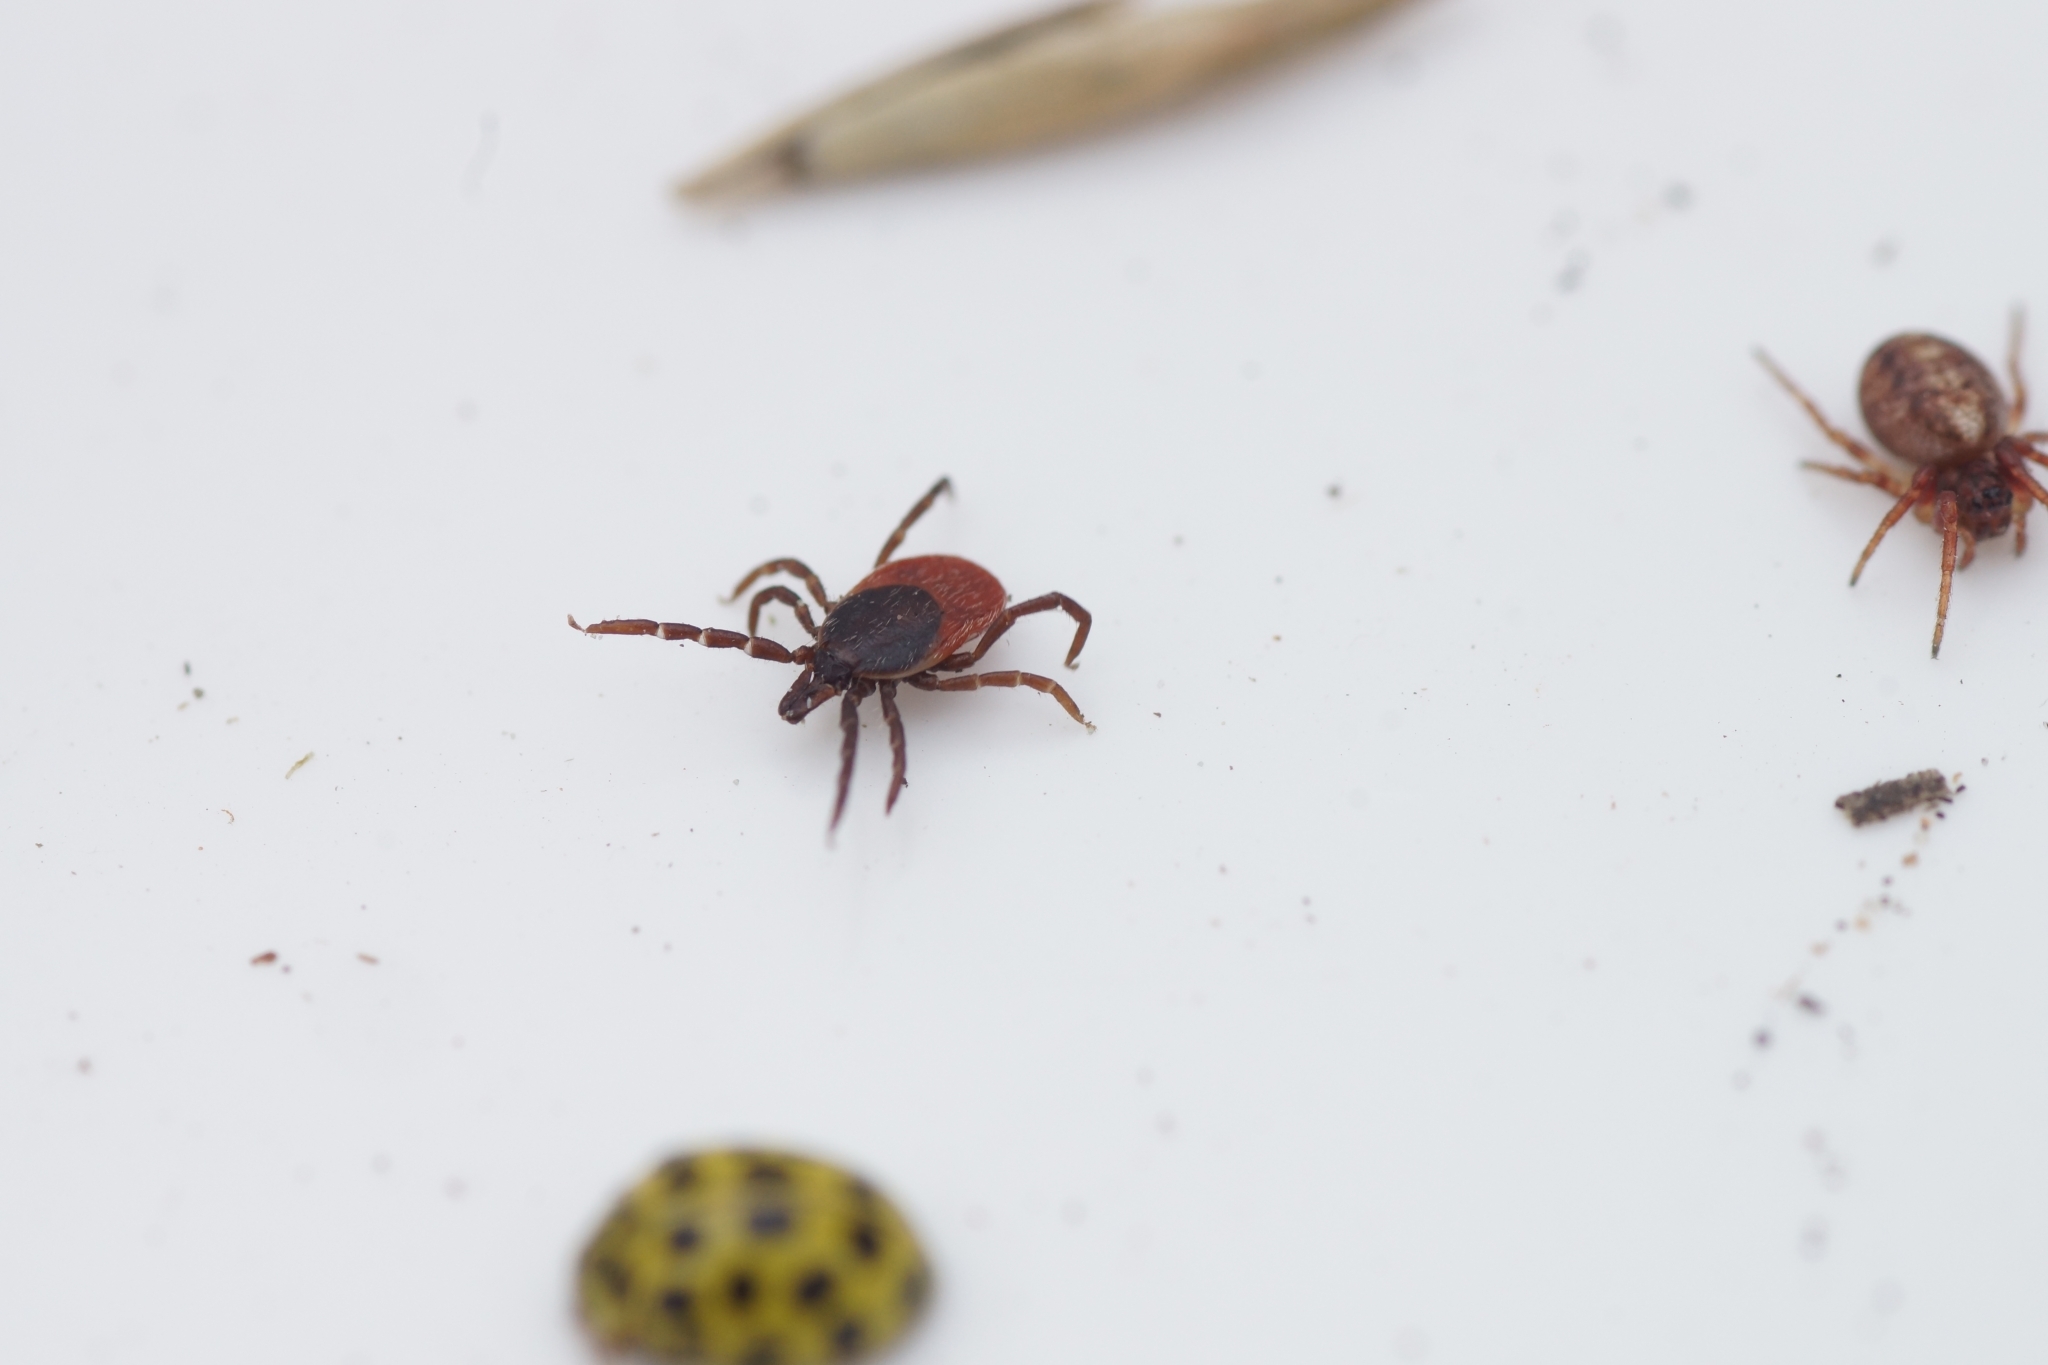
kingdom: Animalia
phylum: Arthropoda
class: Arachnida
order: Ixodida
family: Ixodidae
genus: Ixodes
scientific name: Ixodes ricinus
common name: Castor bean tick
